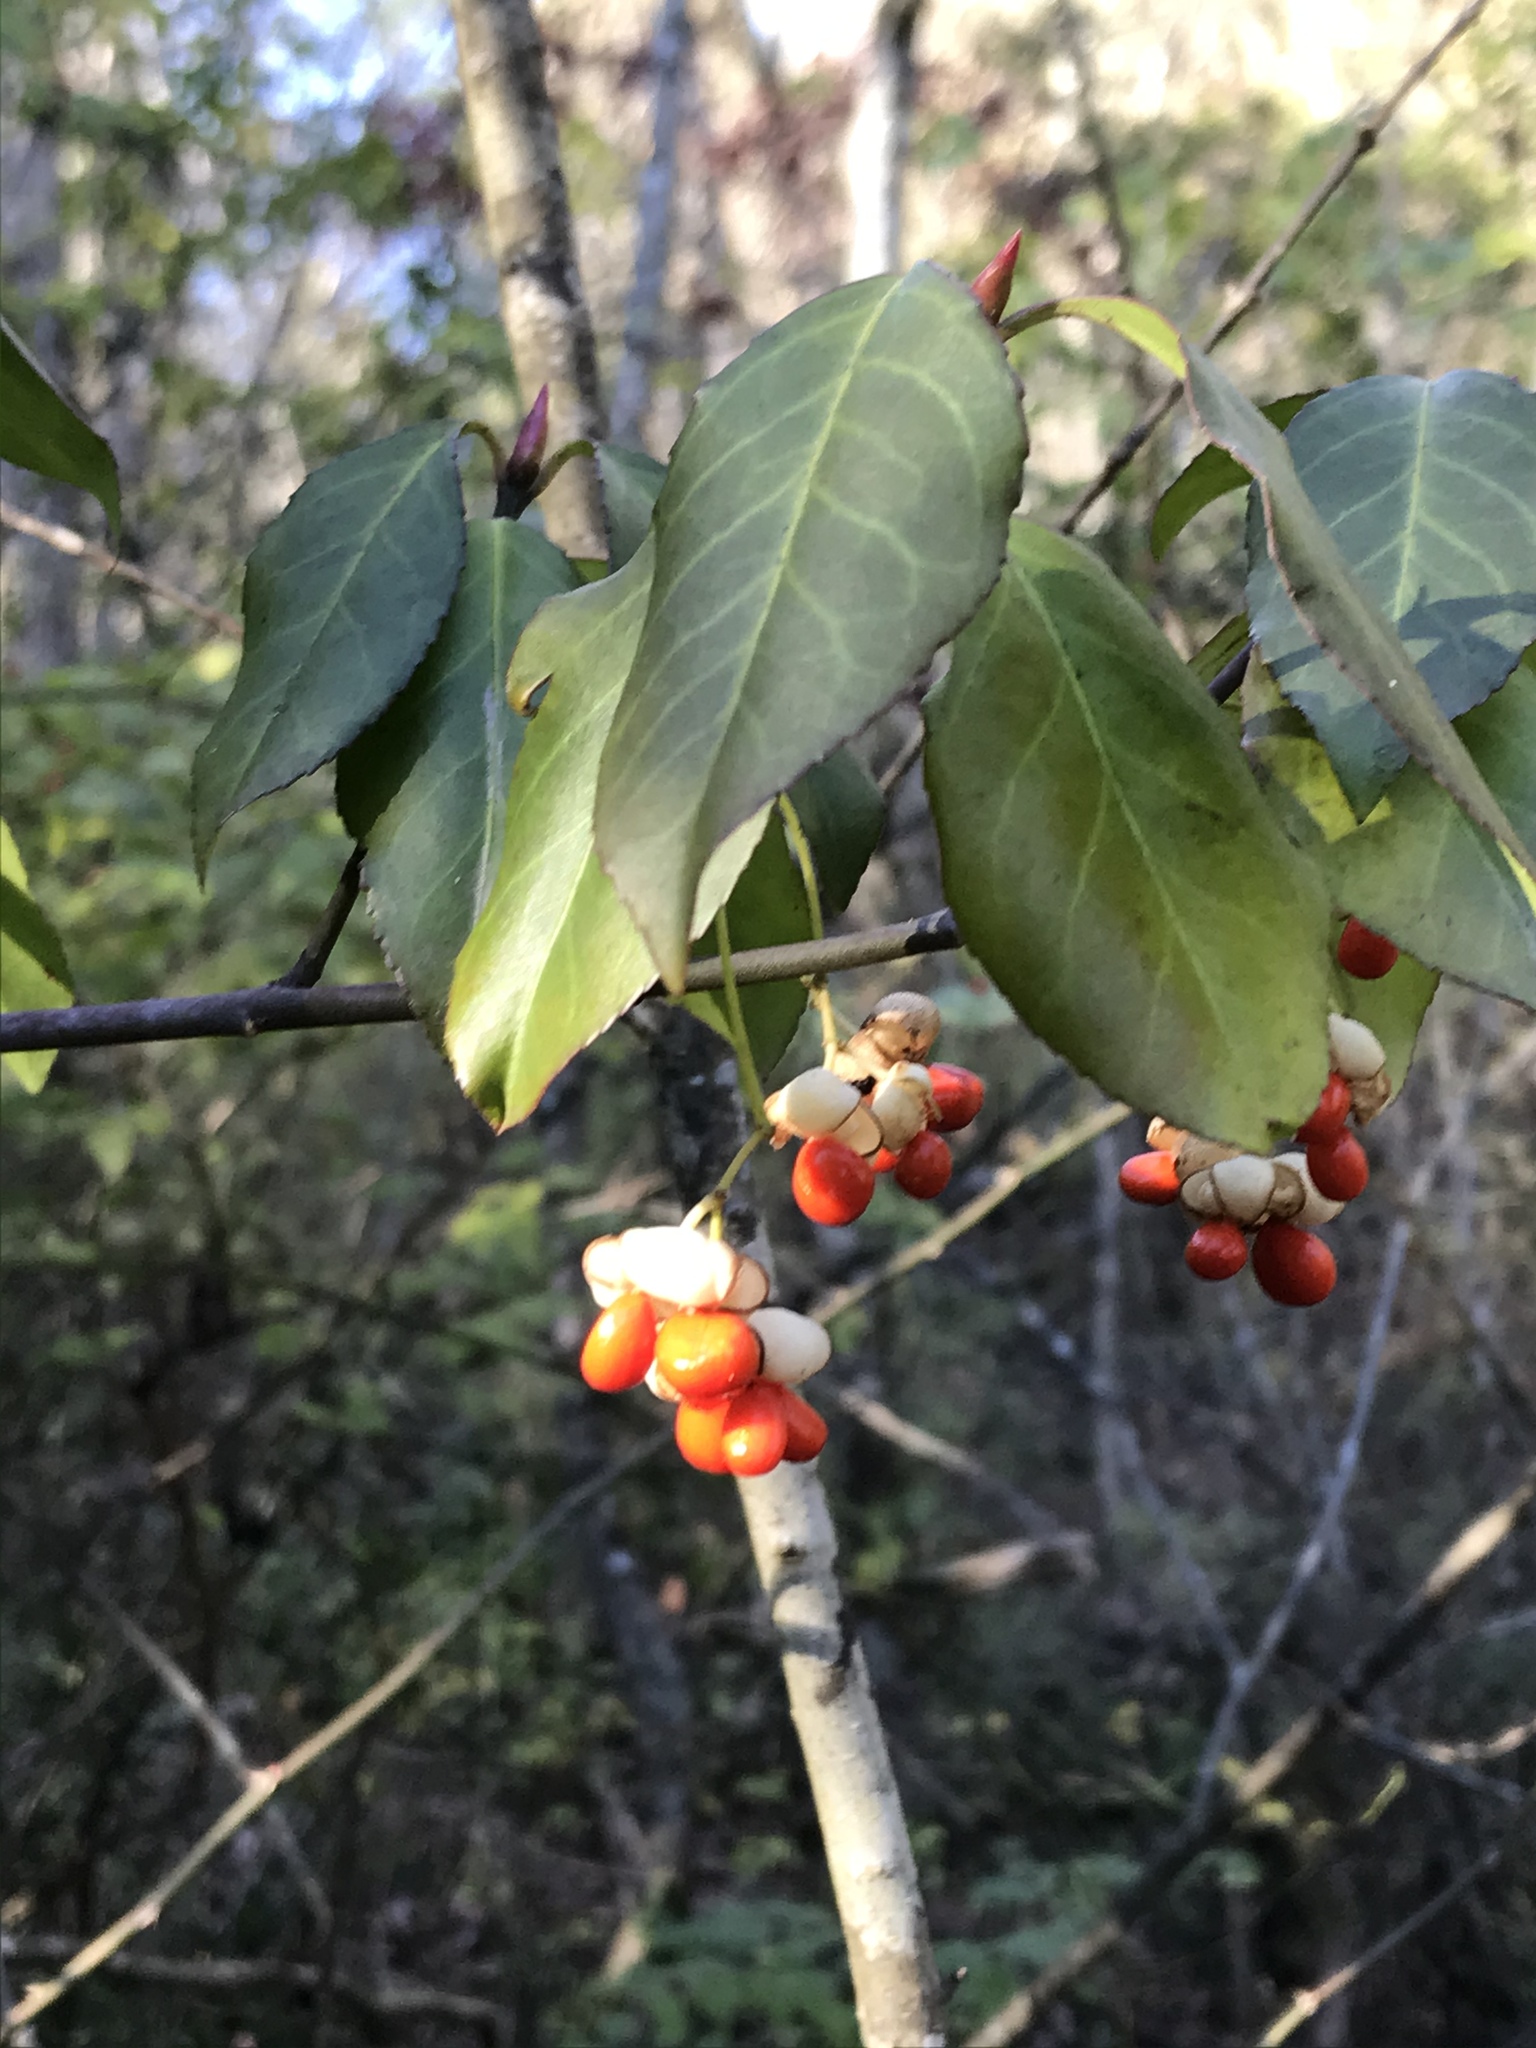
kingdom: Plantae
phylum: Tracheophyta
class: Magnoliopsida
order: Celastrales
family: Celastraceae
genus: Euonymus
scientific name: Euonymus fortunei
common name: Climbing euonymus
